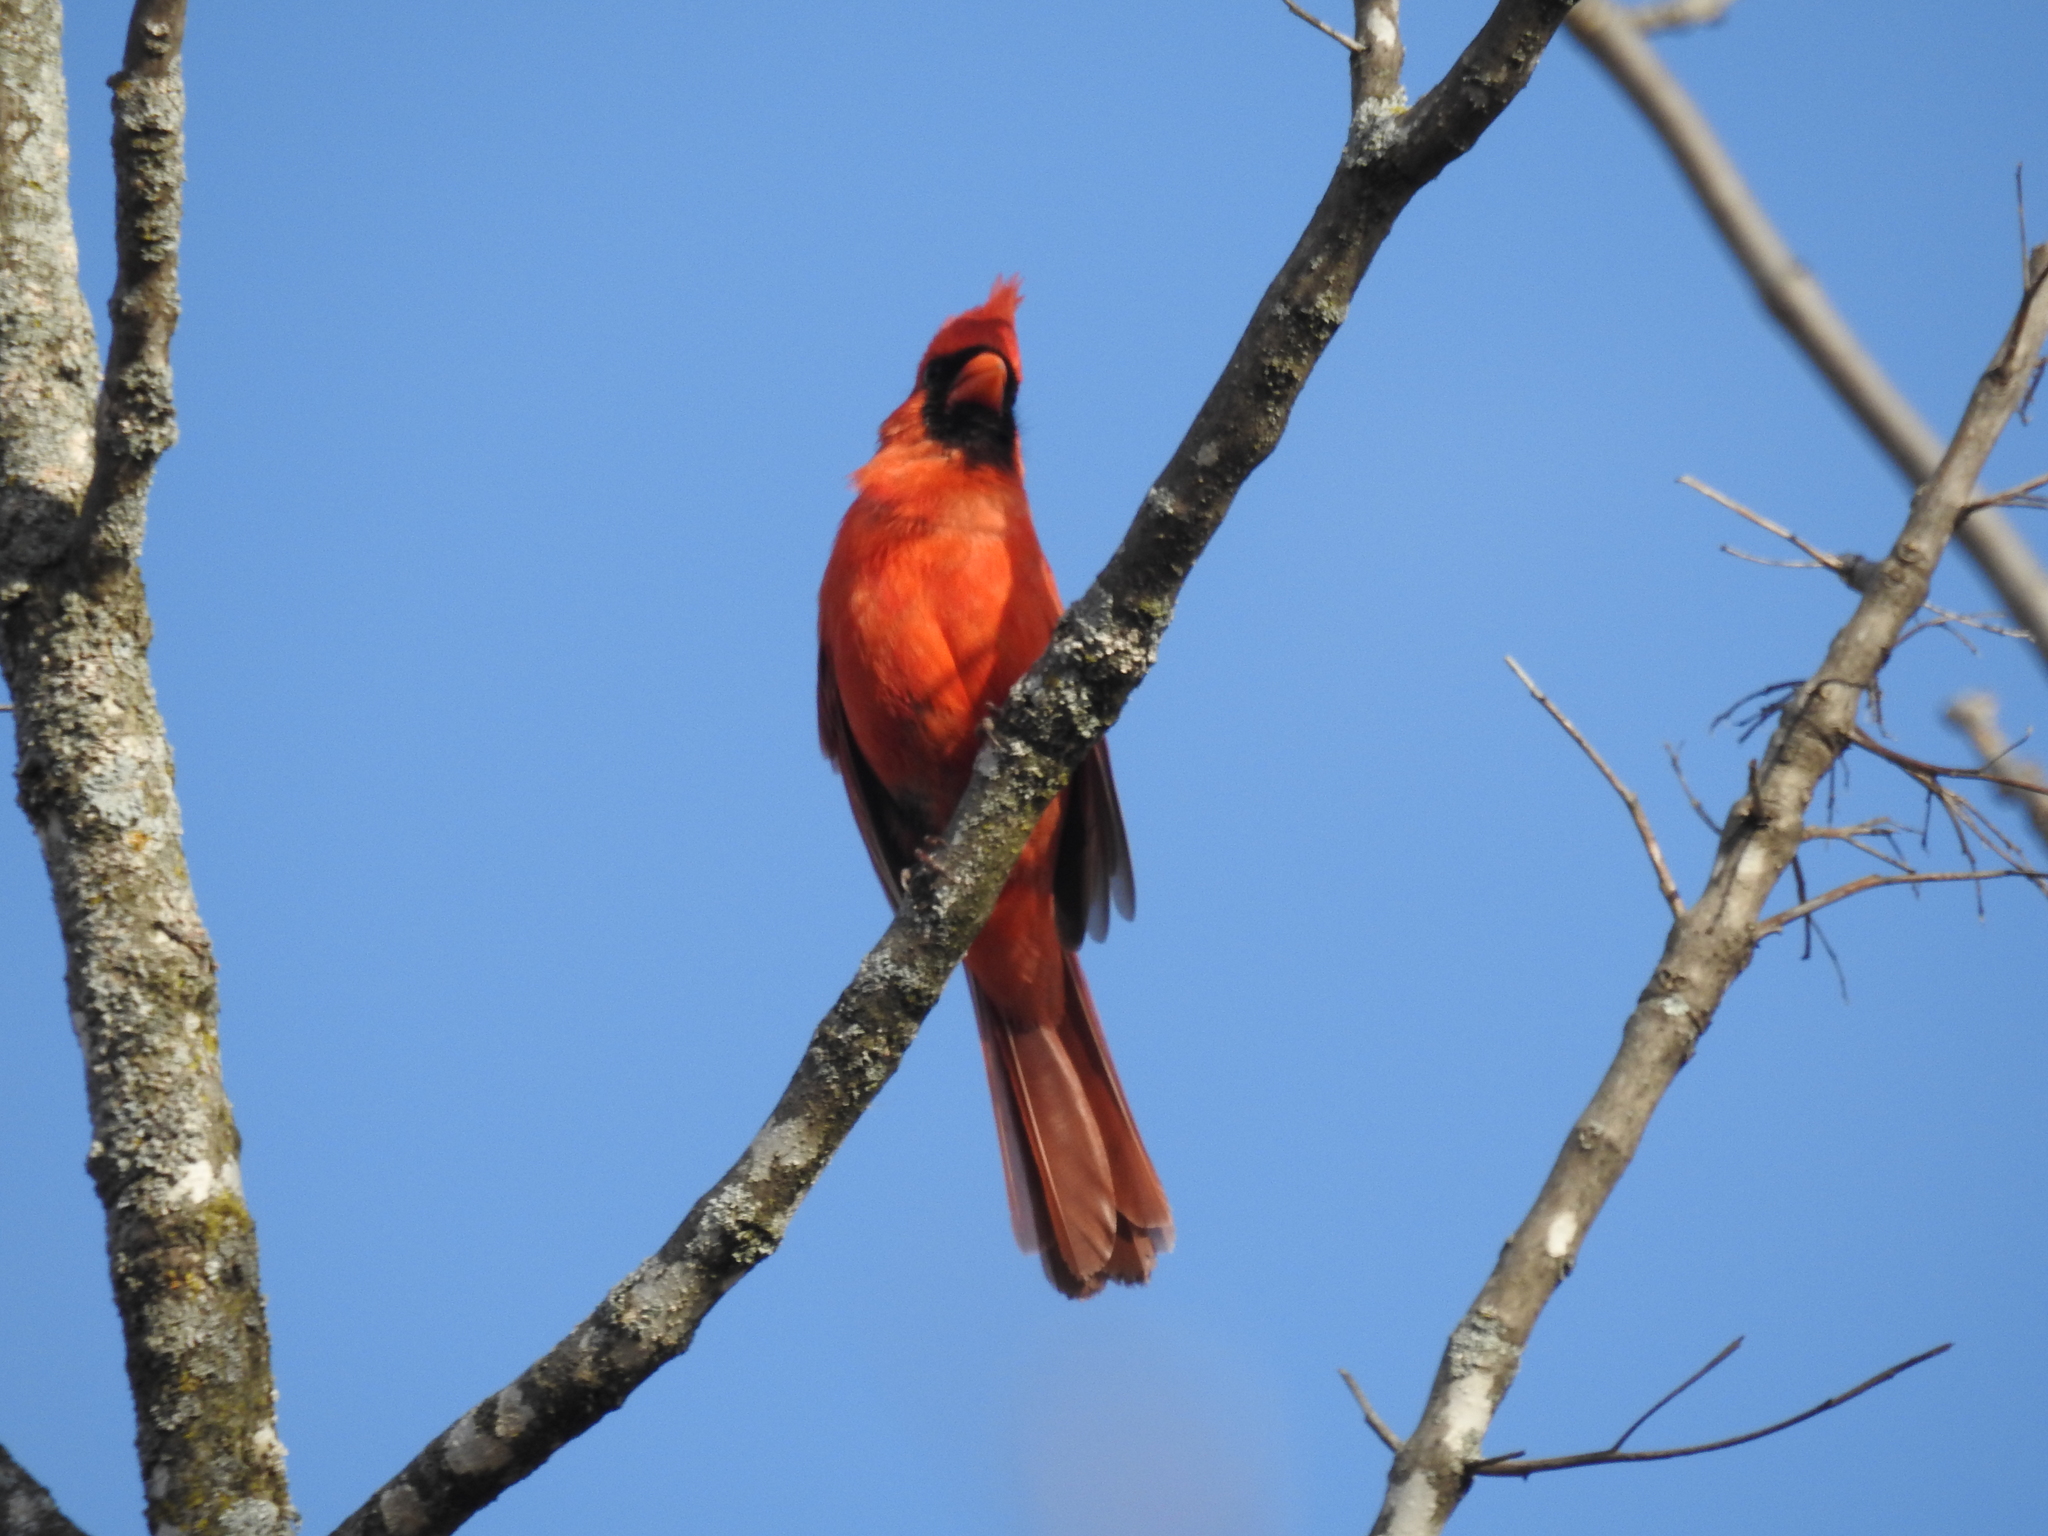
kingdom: Animalia
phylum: Chordata
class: Aves
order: Passeriformes
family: Cardinalidae
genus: Cardinalis
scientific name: Cardinalis cardinalis
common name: Northern cardinal
